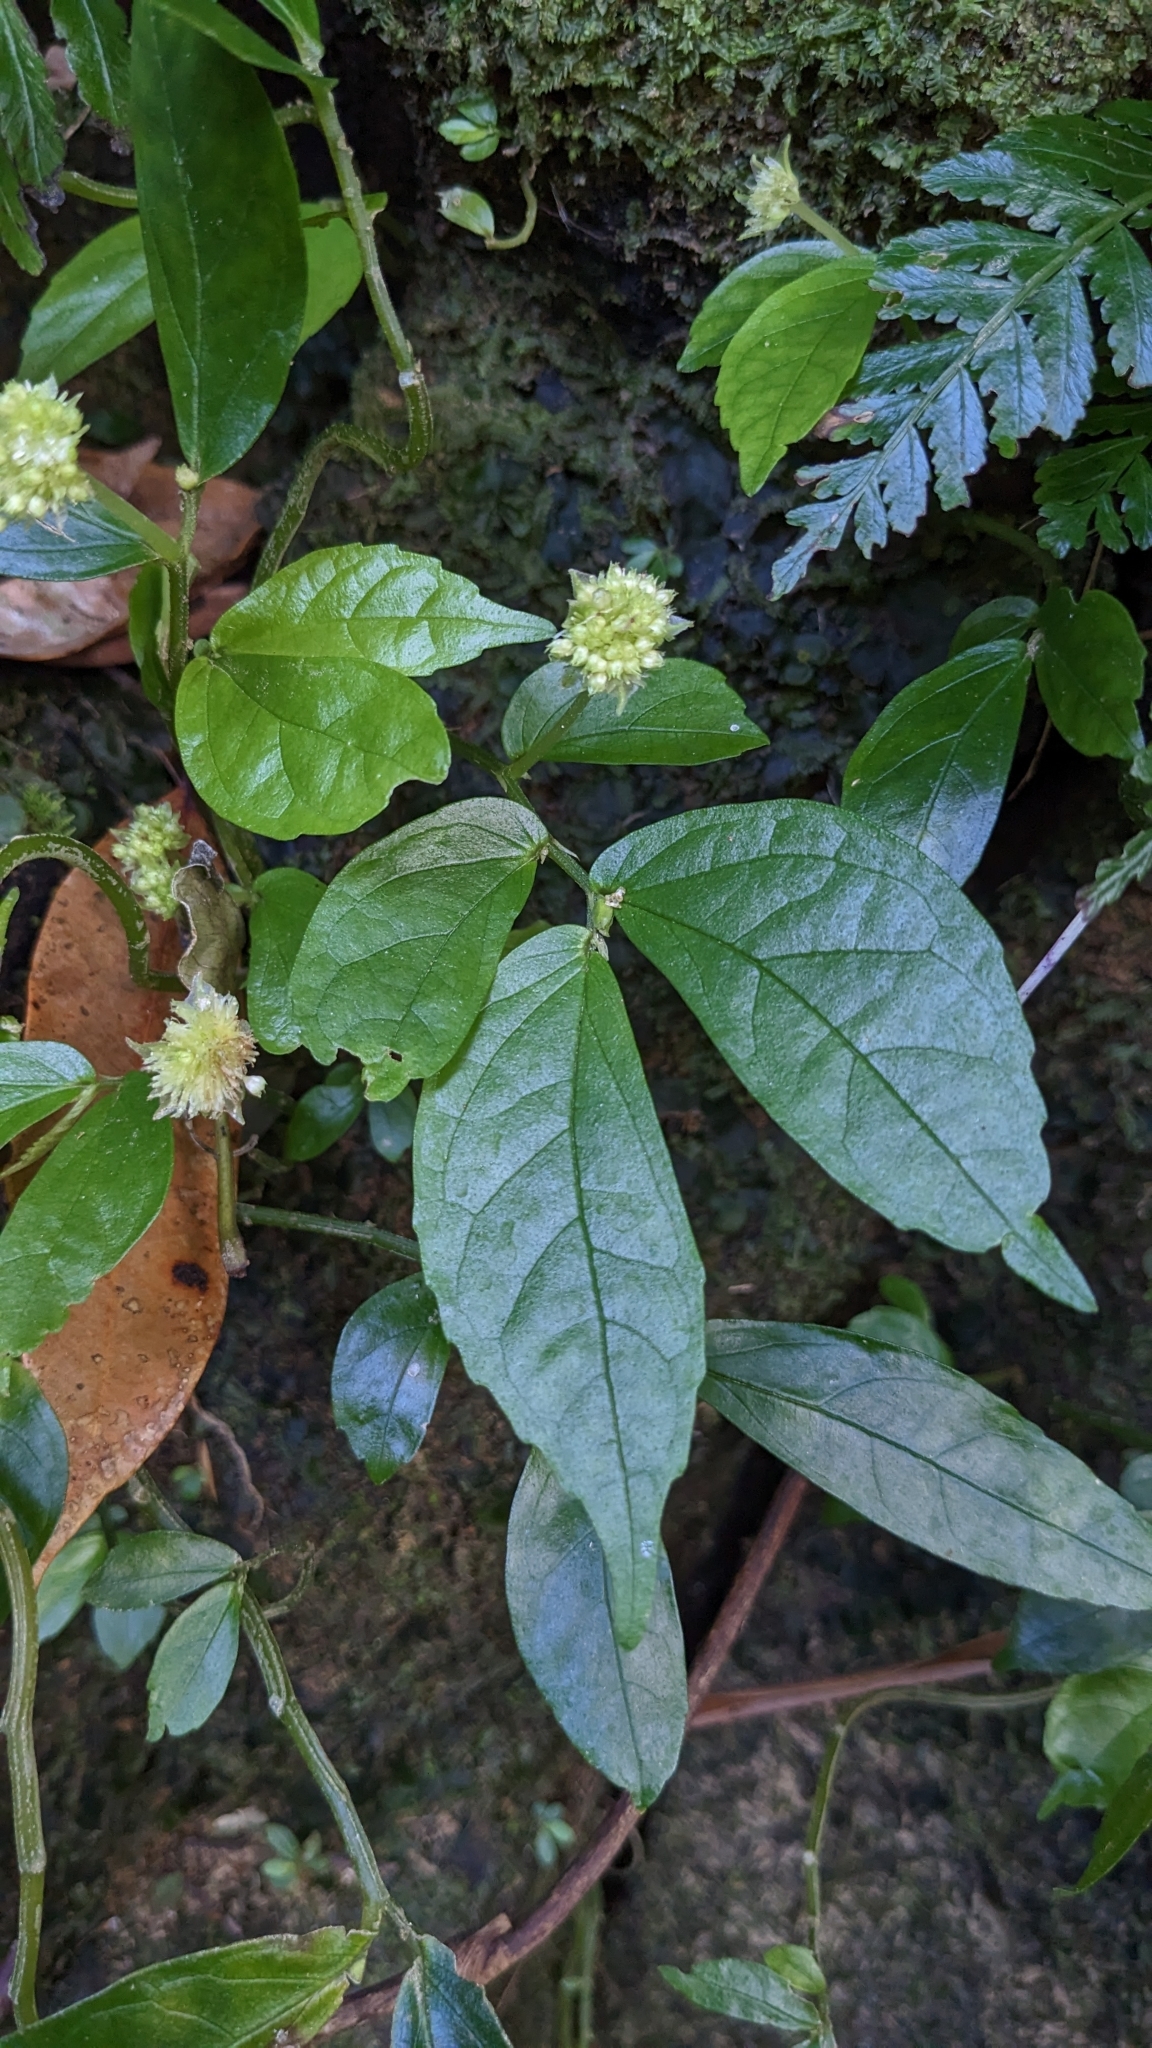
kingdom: Plantae
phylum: Tracheophyta
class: Magnoliopsida
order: Rosales
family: Urticaceae
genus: Elatostema
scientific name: Elatostema hirtellipedunculatum
